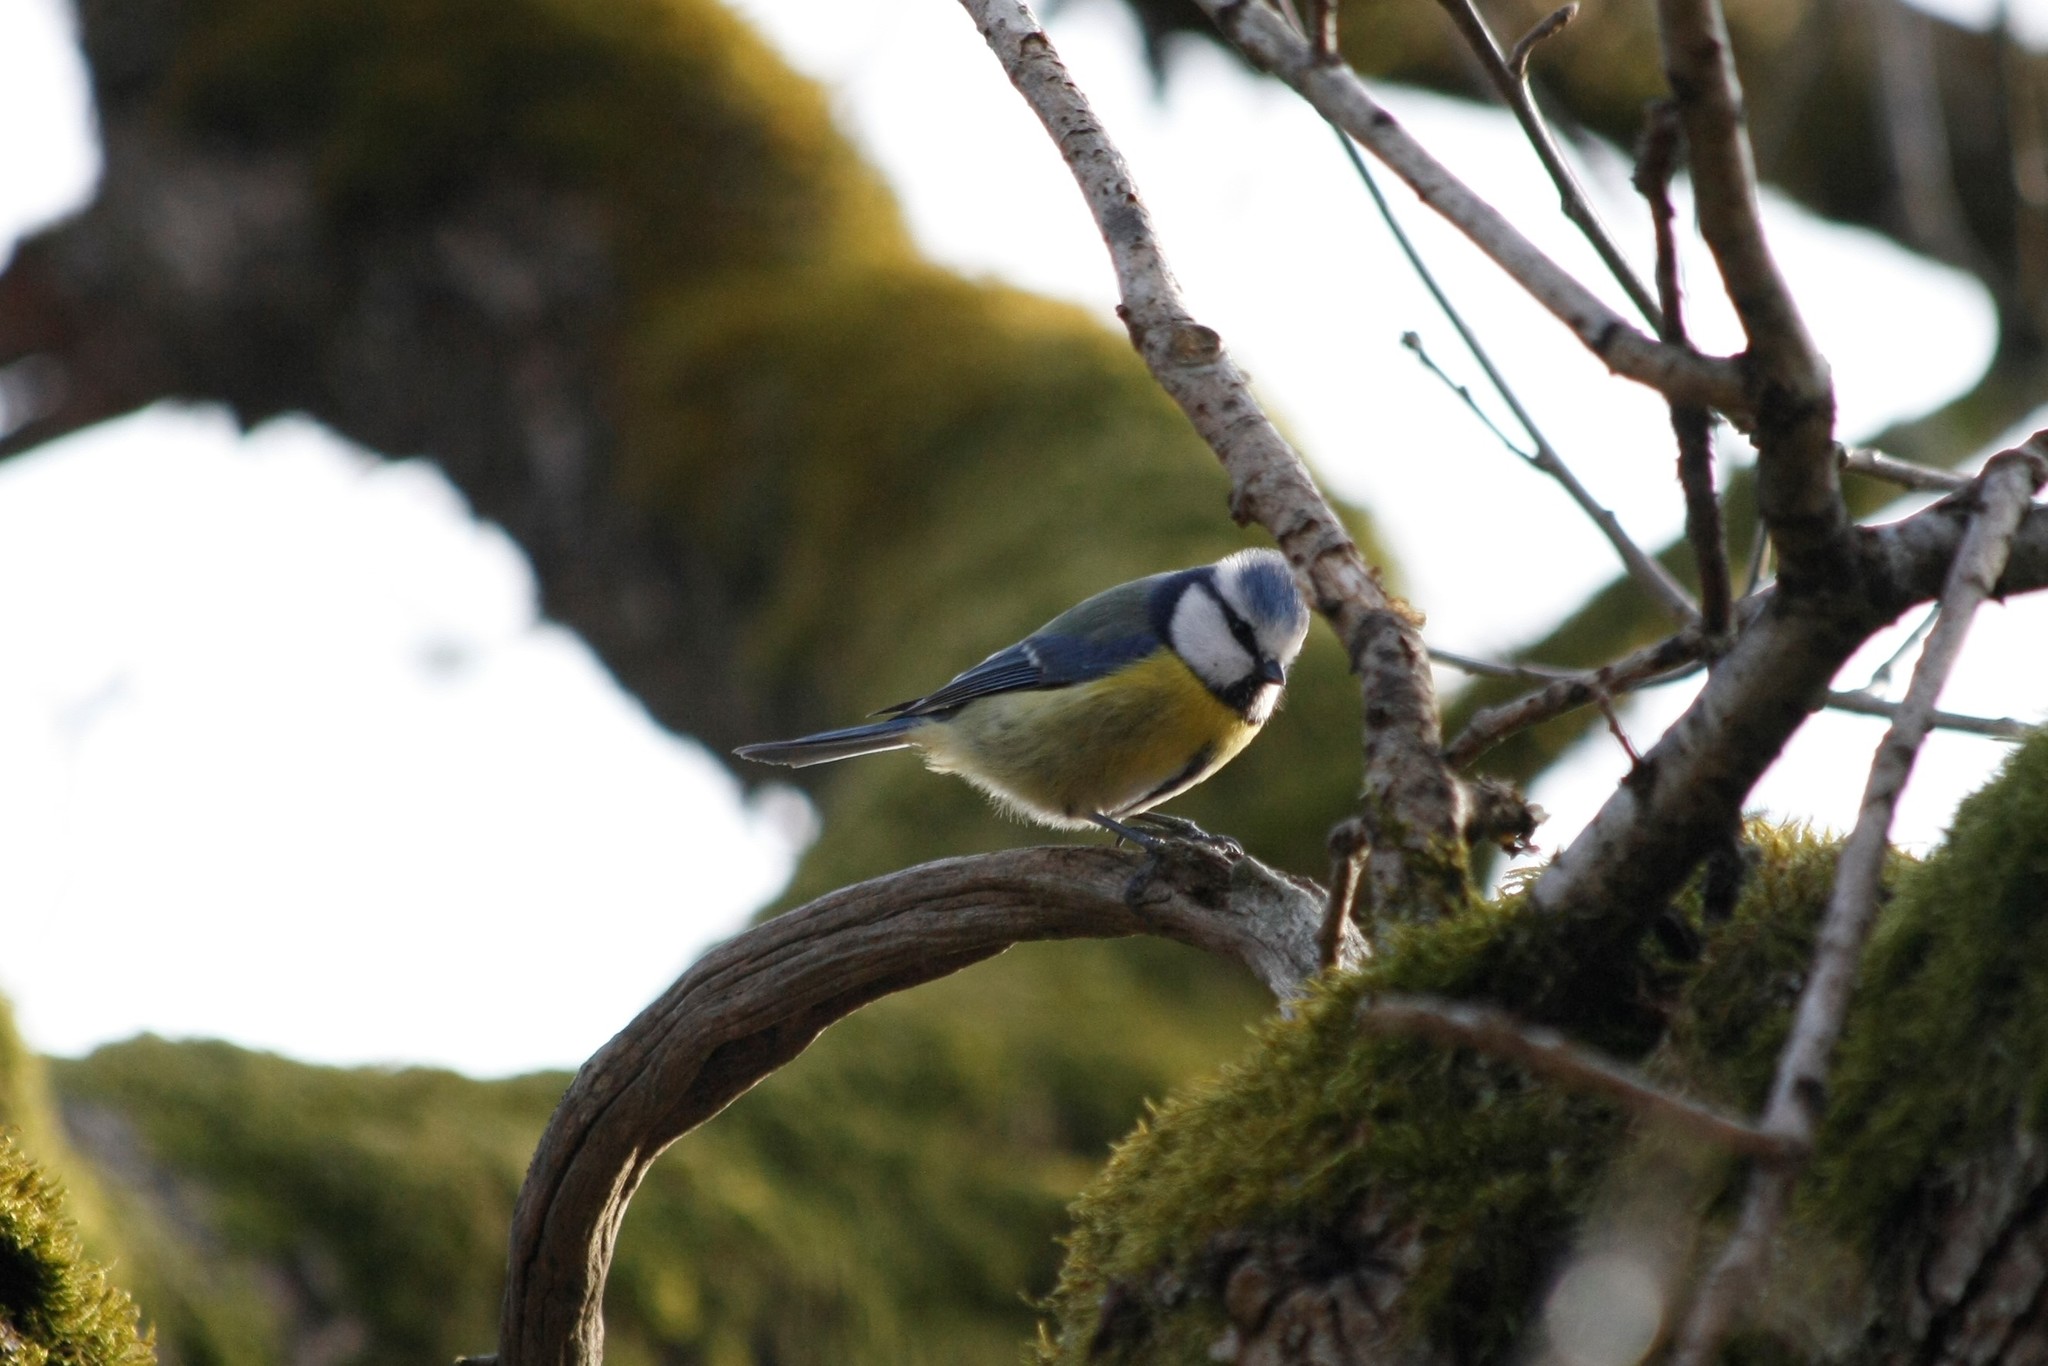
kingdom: Animalia
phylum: Chordata
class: Aves
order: Passeriformes
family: Paridae
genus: Cyanistes
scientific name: Cyanistes caeruleus
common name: Eurasian blue tit
